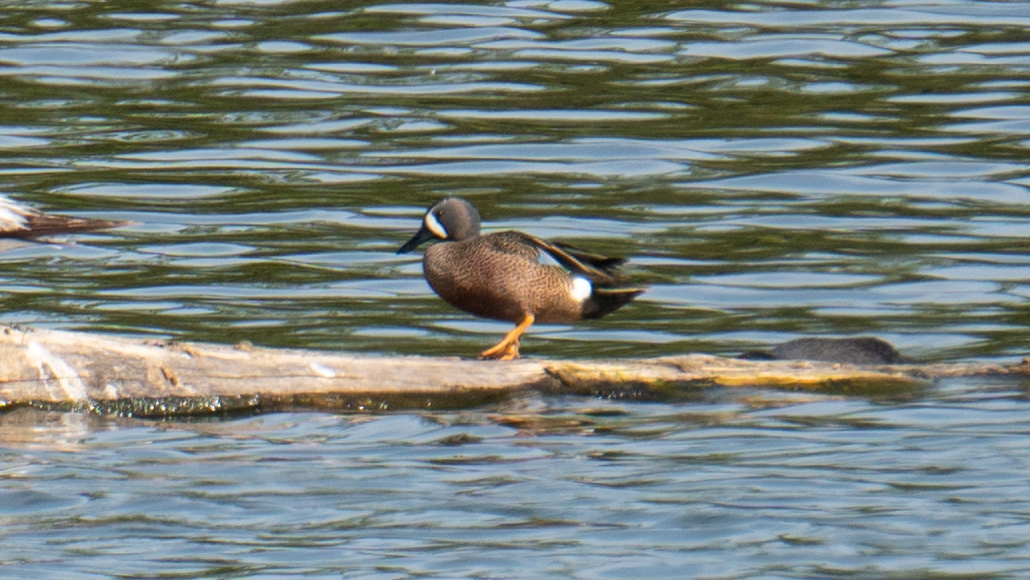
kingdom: Animalia
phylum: Chordata
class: Aves
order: Anseriformes
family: Anatidae
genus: Spatula
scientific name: Spatula discors
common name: Blue-winged teal
